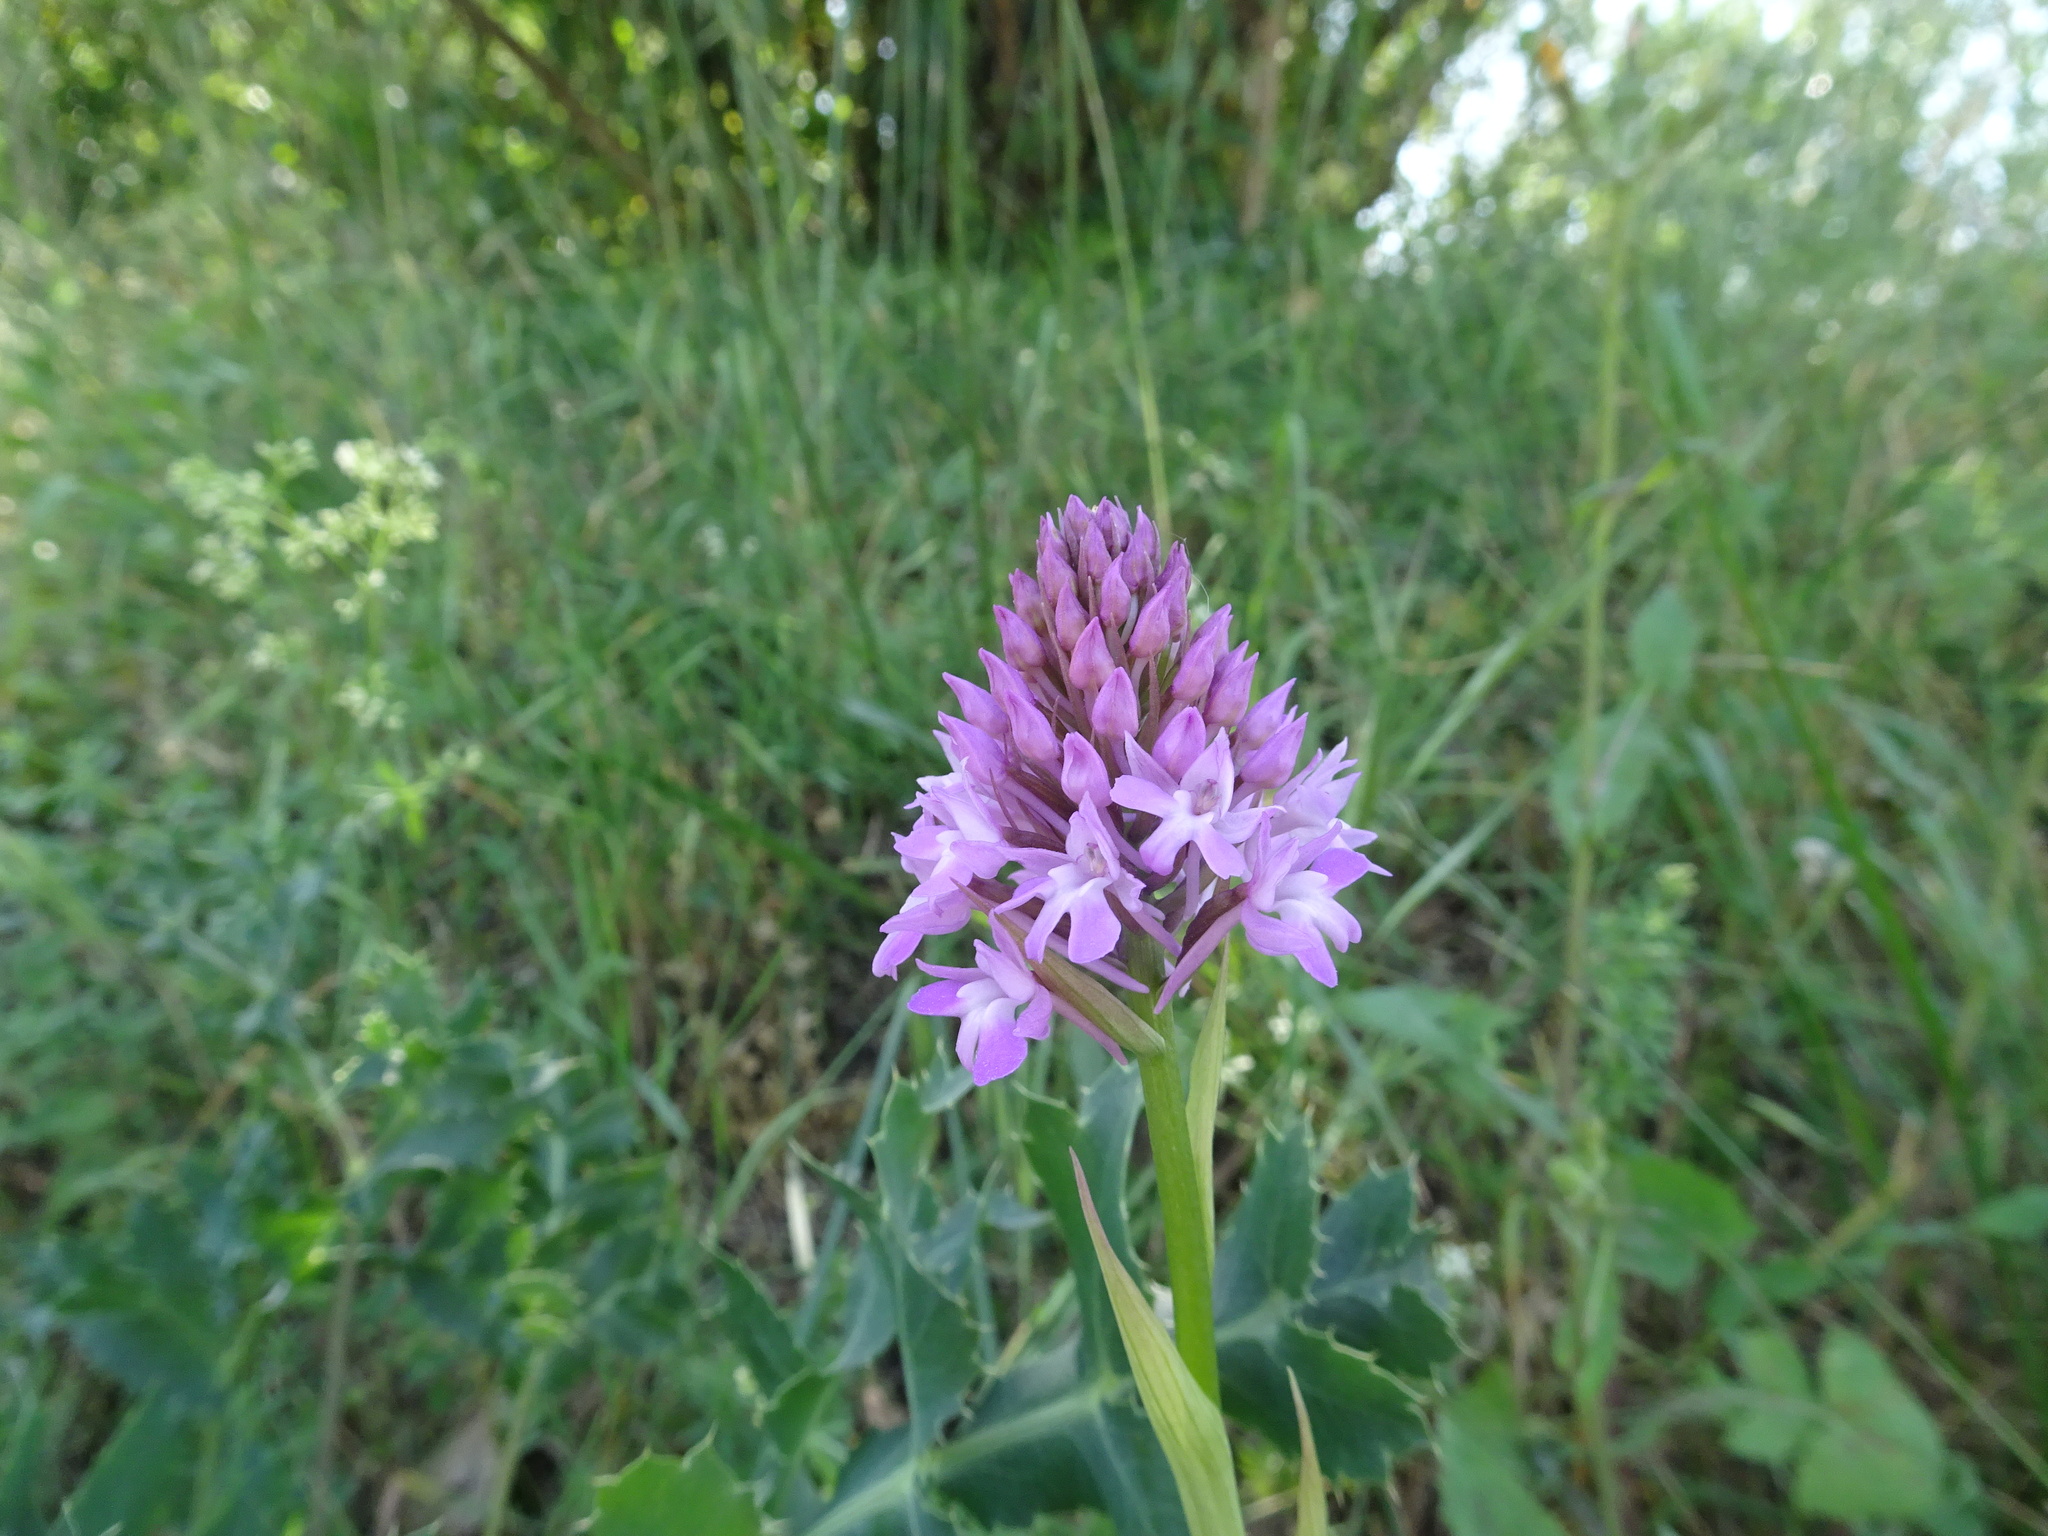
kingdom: Plantae
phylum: Tracheophyta
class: Liliopsida
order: Asparagales
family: Orchidaceae
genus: Anacamptis
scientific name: Anacamptis pyramidalis
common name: Pyramidal orchid
